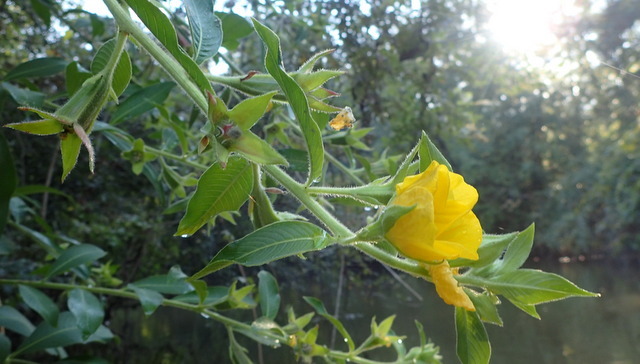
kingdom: Plantae
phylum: Tracheophyta
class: Magnoliopsida
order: Myrtales
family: Onagraceae
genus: Ludwigia
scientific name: Ludwigia peruviana
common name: Peruvian primrose-willow
